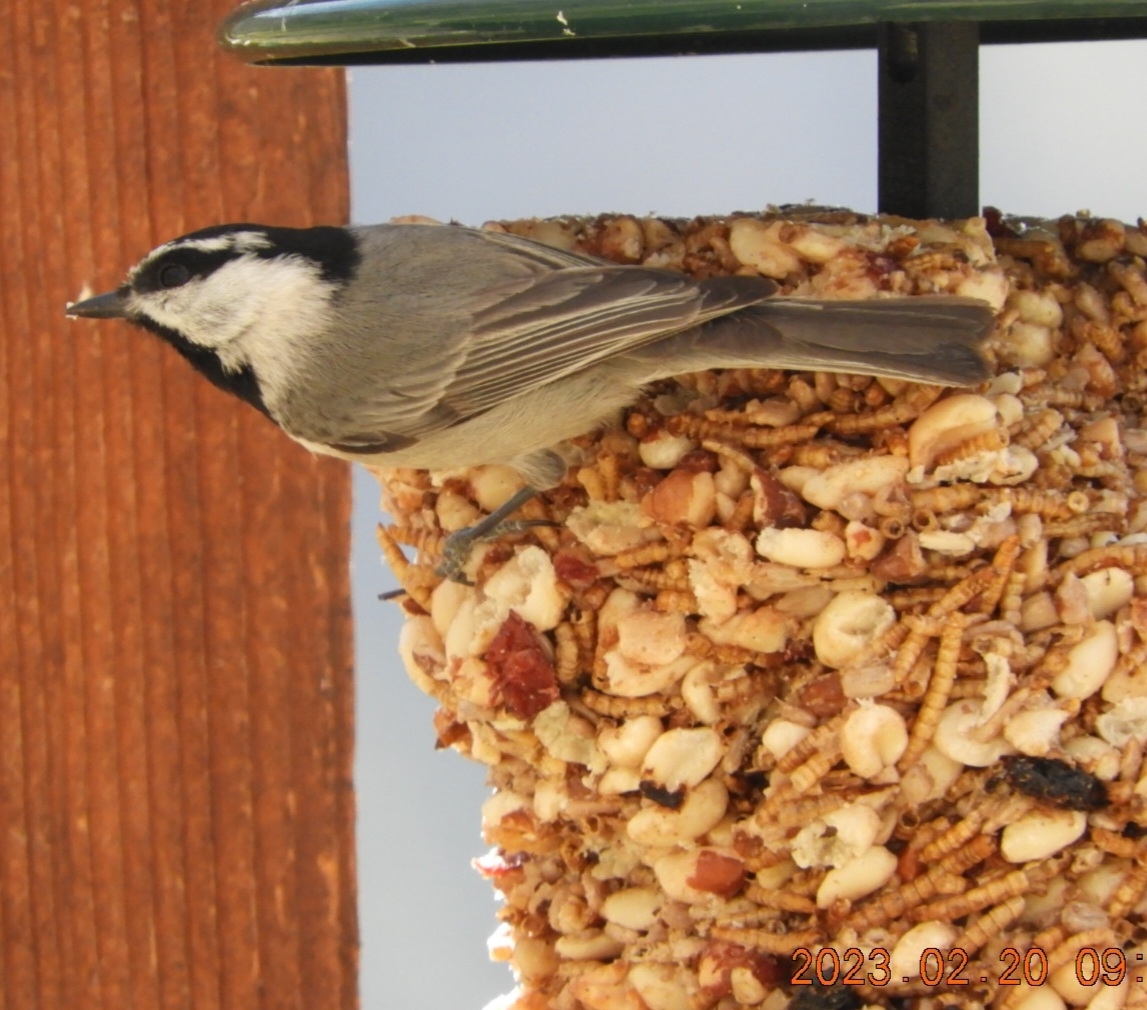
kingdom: Animalia
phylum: Chordata
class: Aves
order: Passeriformes
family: Paridae
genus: Poecile
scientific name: Poecile gambeli
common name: Mountain chickadee
